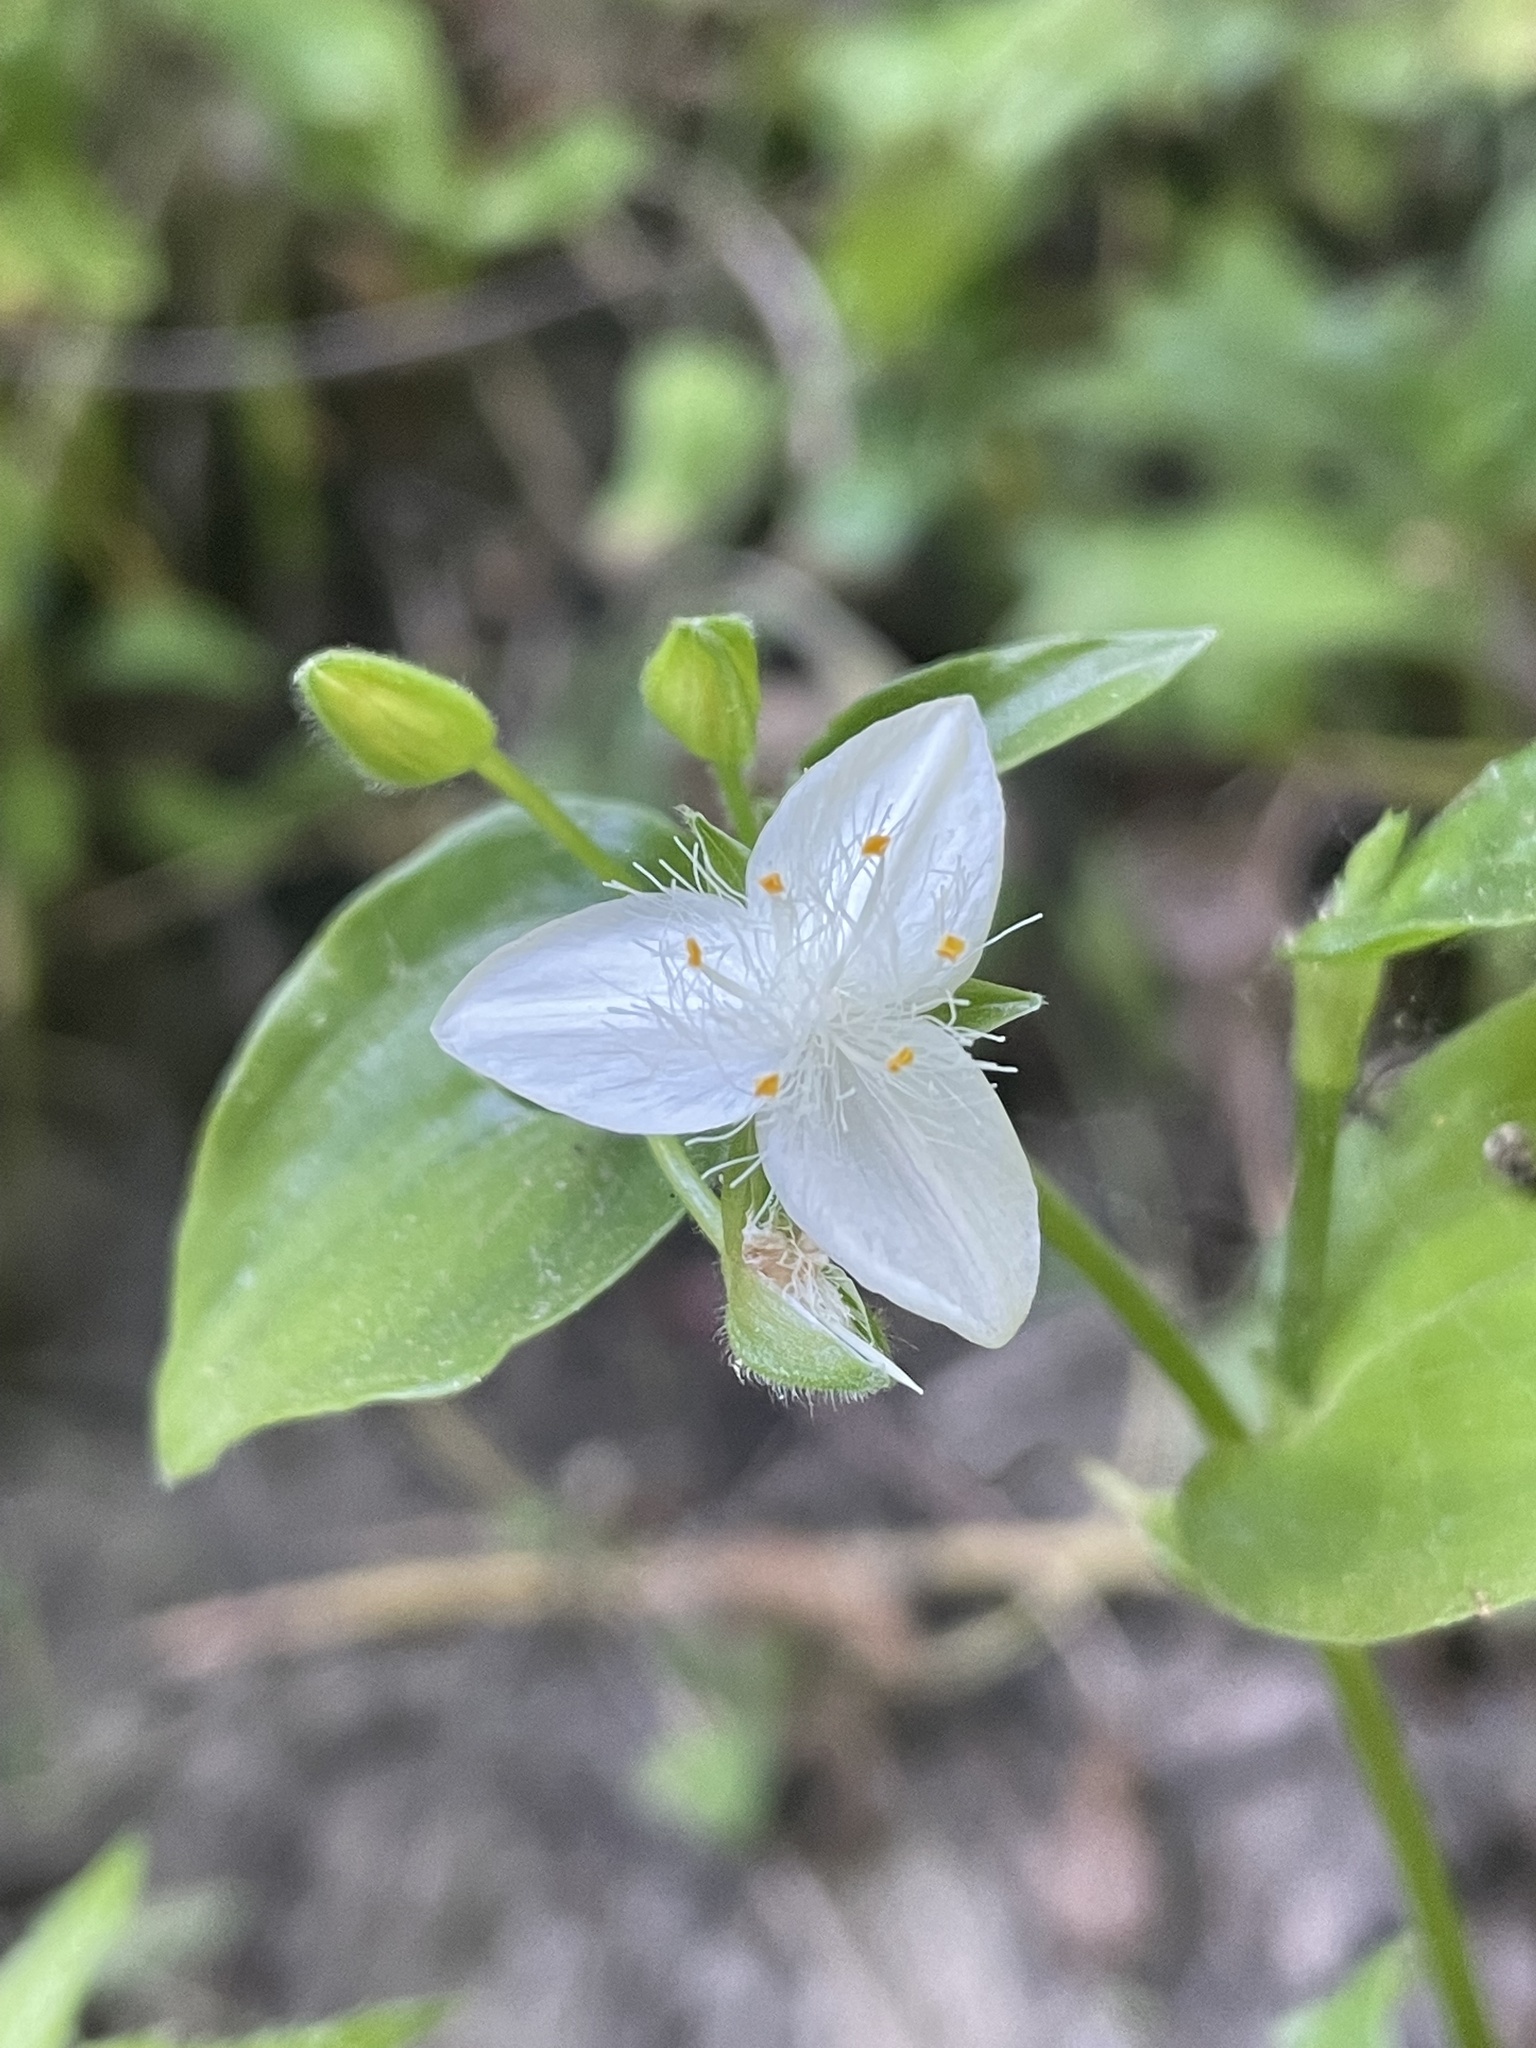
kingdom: Plantae
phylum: Tracheophyta
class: Liliopsida
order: Commelinales
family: Commelinaceae
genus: Tradescantia
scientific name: Tradescantia fluminensis
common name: Wandering-jew
